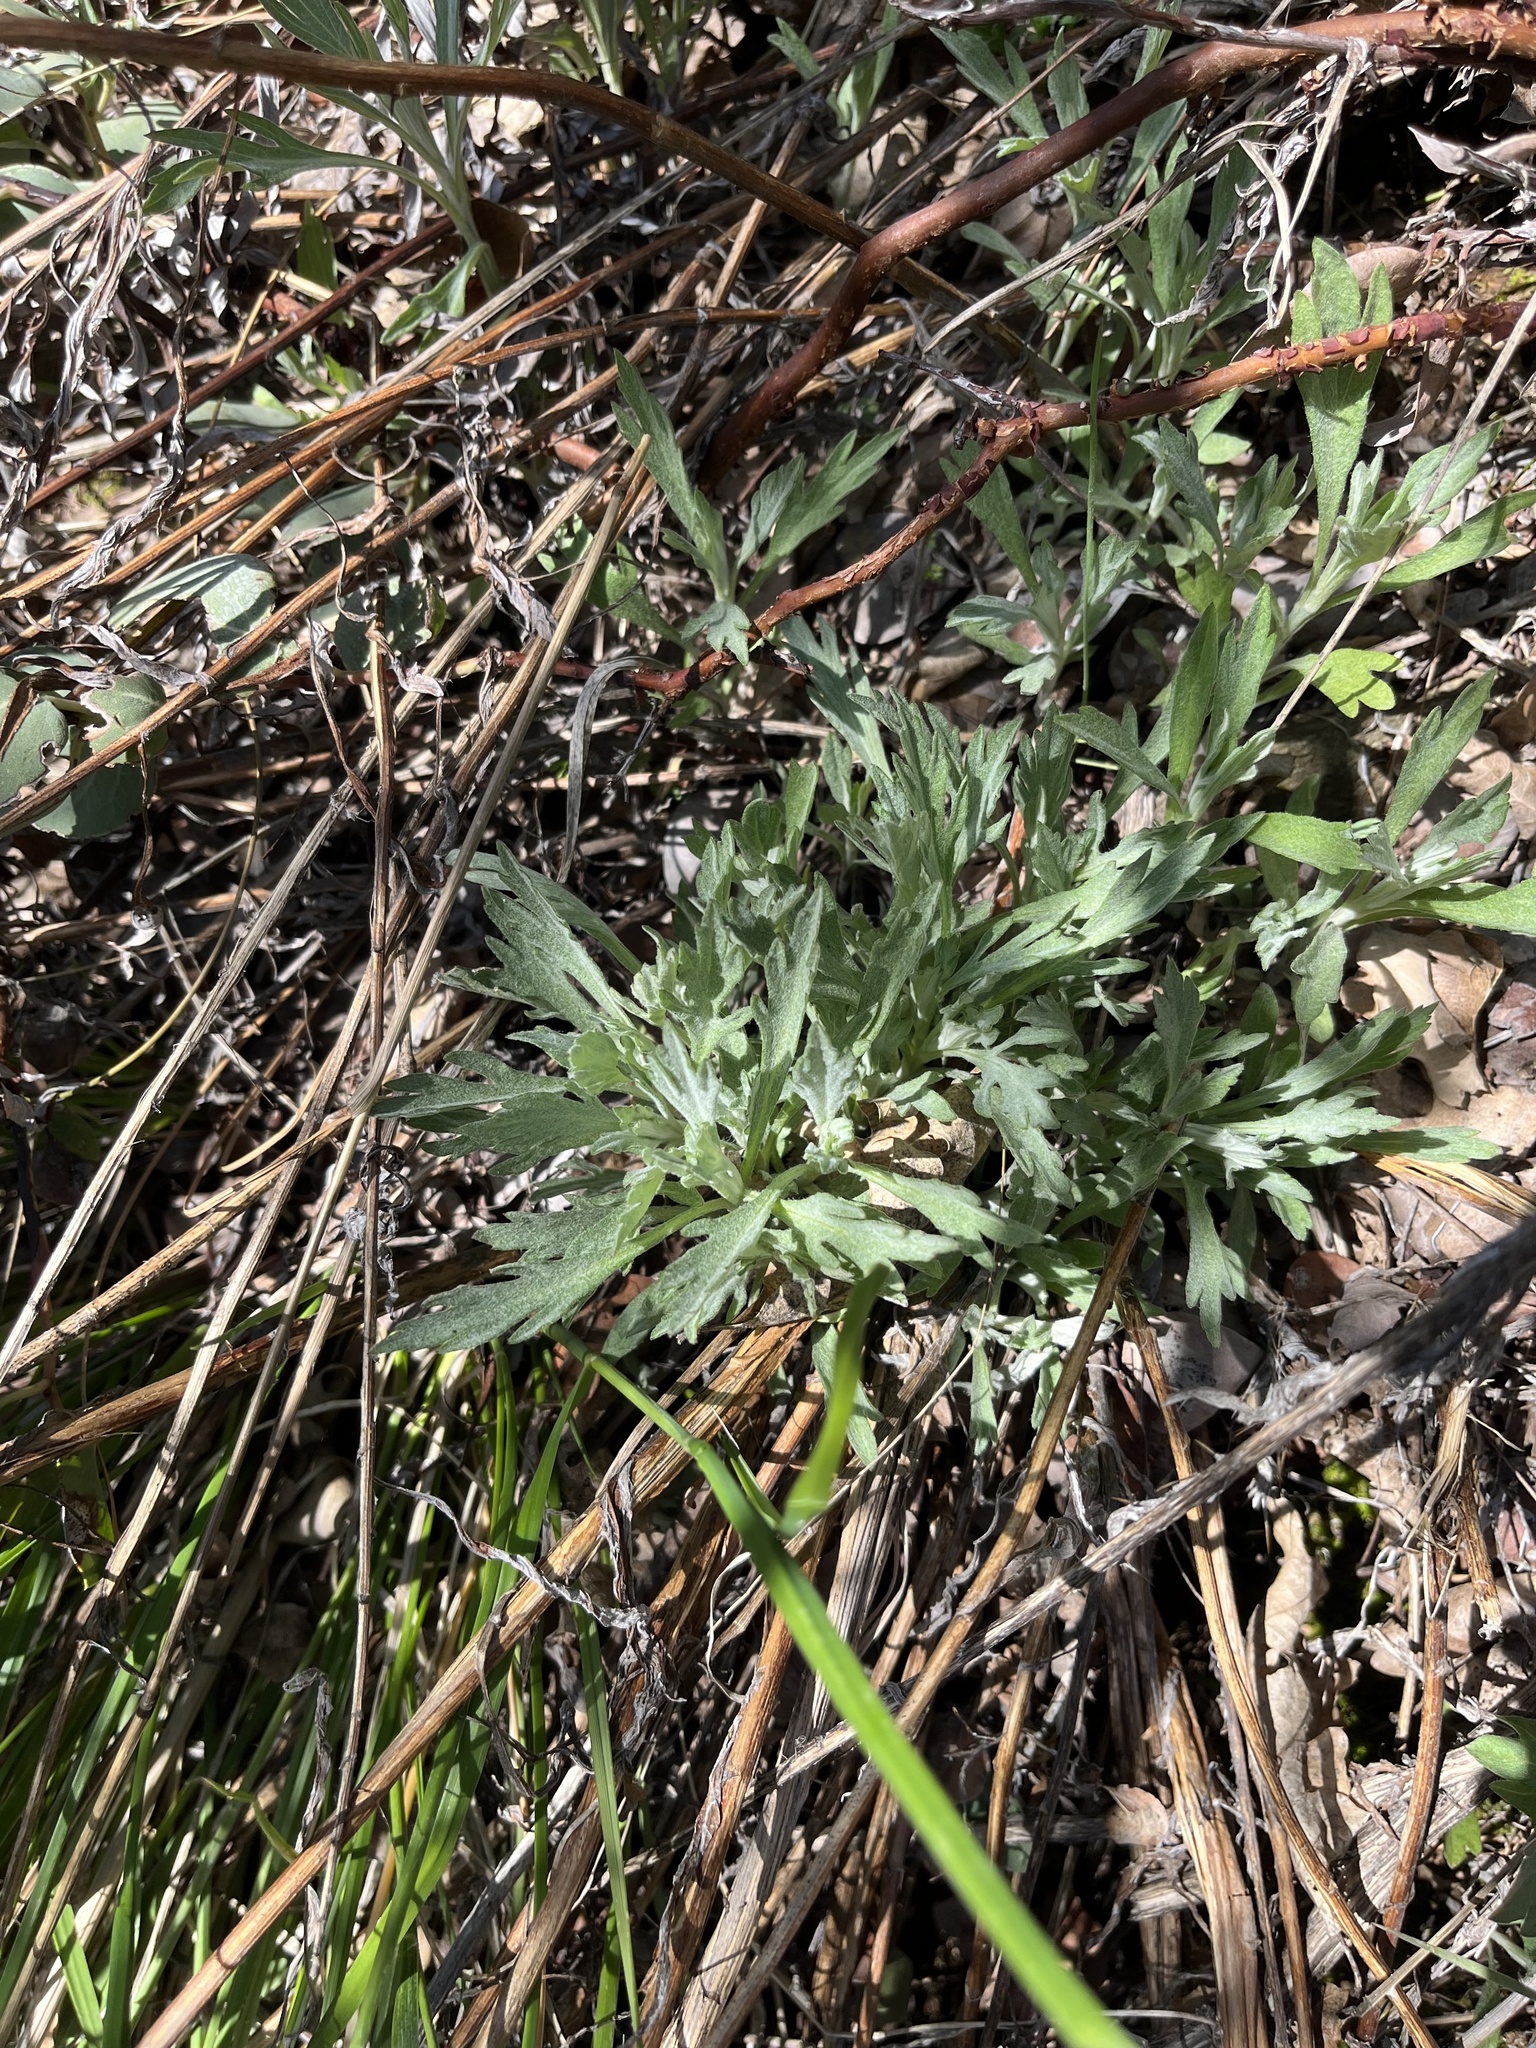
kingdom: Plantae
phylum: Tracheophyta
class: Magnoliopsida
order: Asterales
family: Asteraceae
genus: Artemisia
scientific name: Artemisia douglasiana
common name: Northwest mugwort
